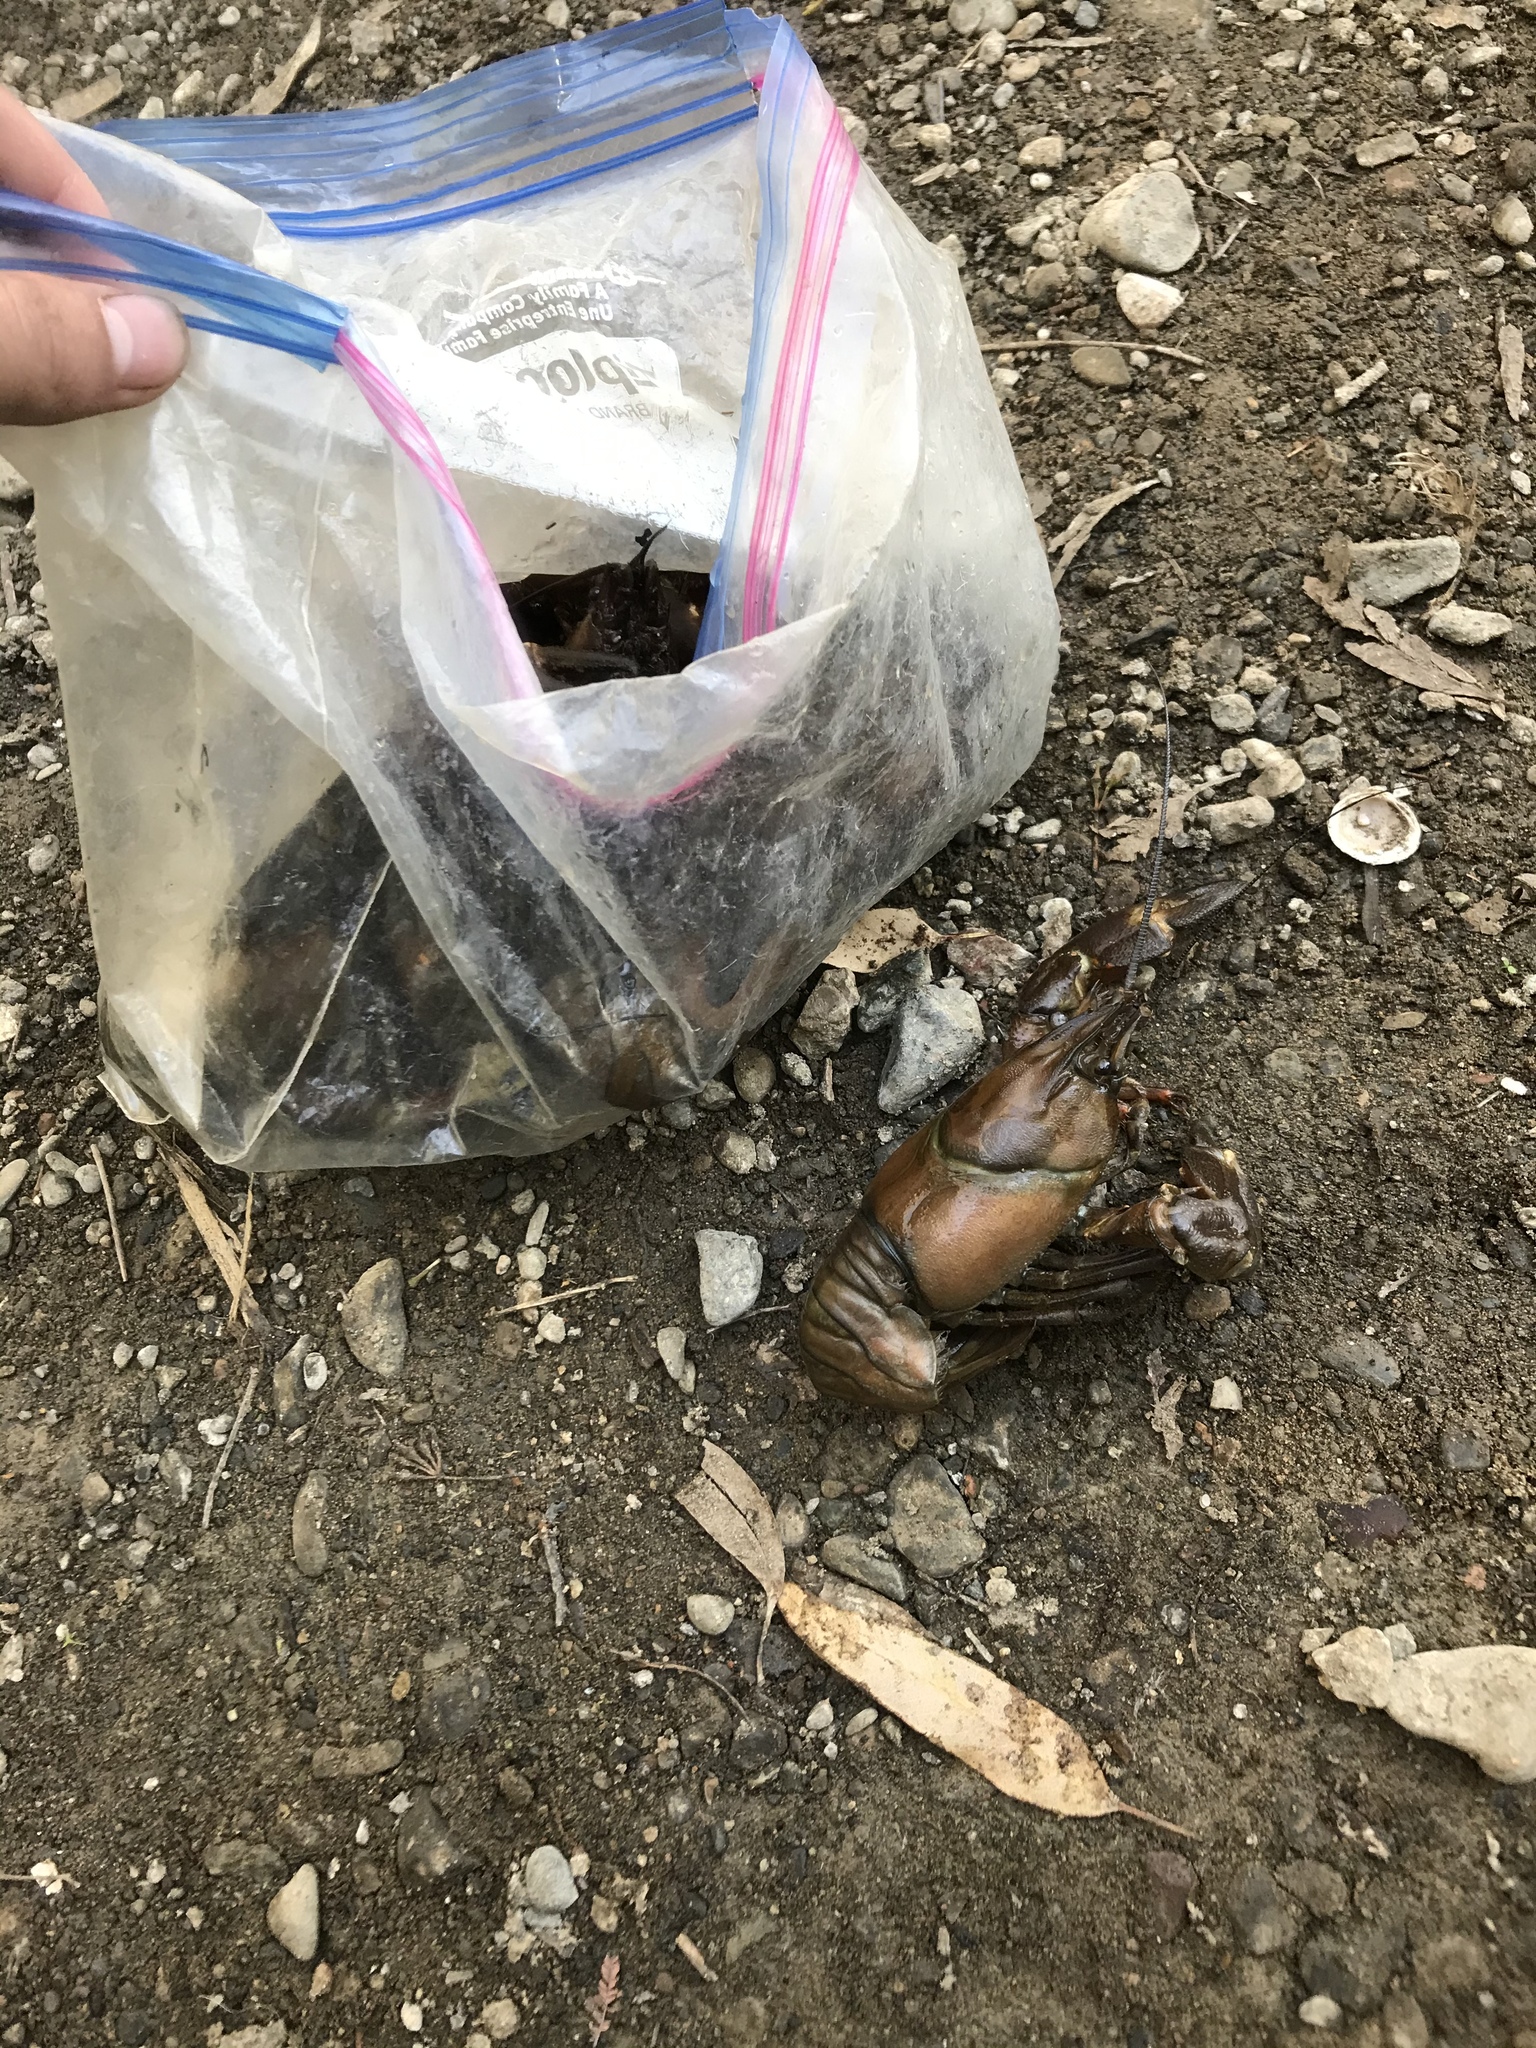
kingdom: Animalia
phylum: Arthropoda
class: Malacostraca
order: Decapoda
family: Astacidae
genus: Pacifastacus
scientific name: Pacifastacus leniusculus
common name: Signal crayfish
